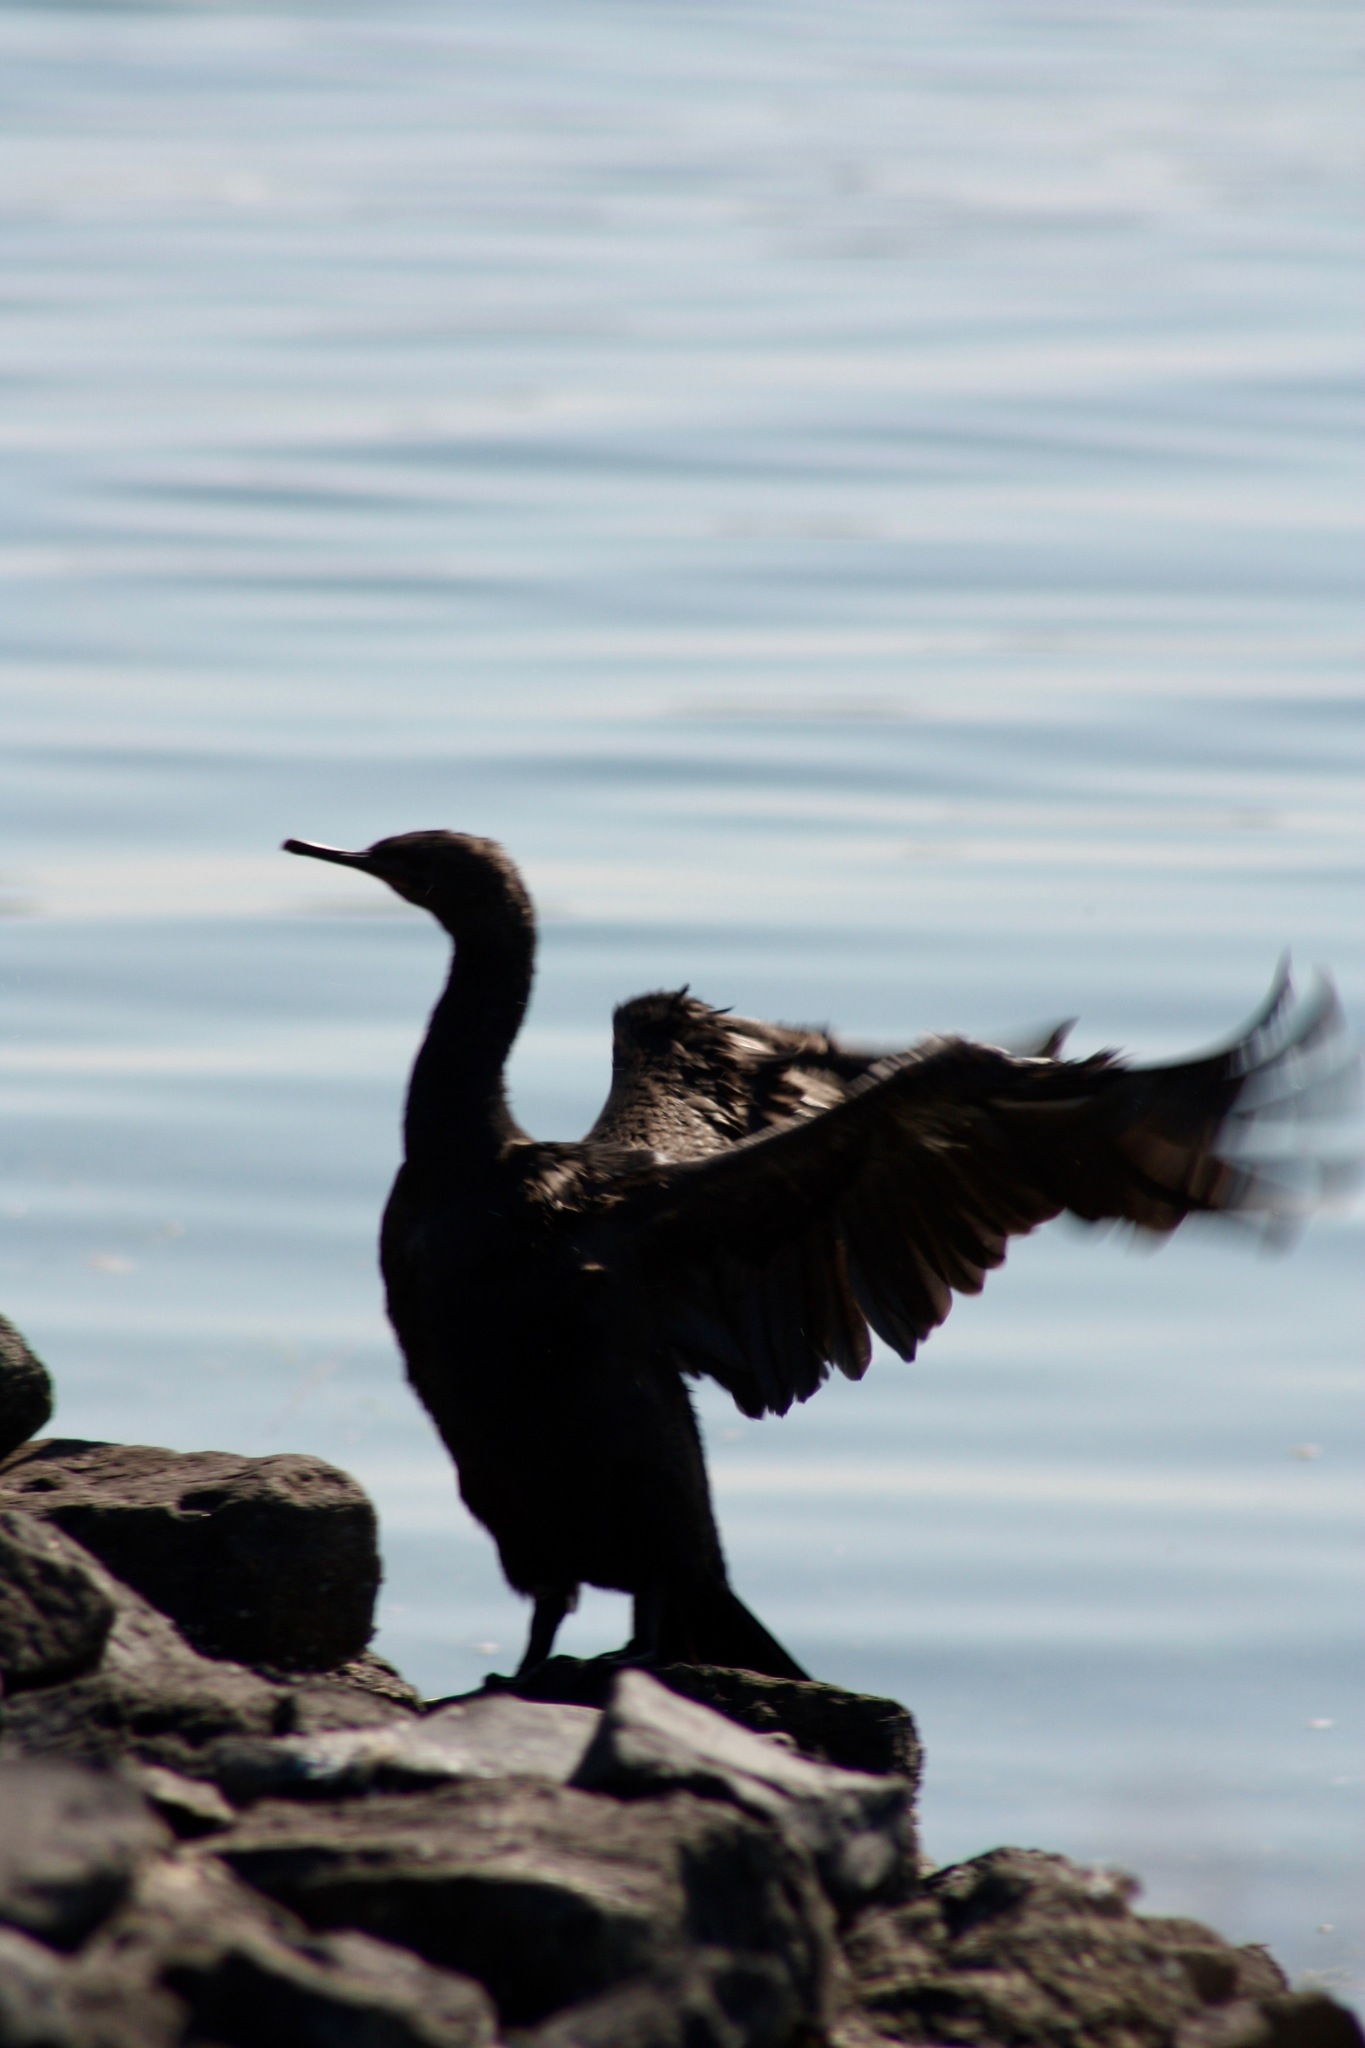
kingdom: Animalia
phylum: Chordata
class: Aves
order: Suliformes
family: Phalacrocoracidae
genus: Phalacrocorax
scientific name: Phalacrocorax pelagicus
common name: Pelagic cormorant
